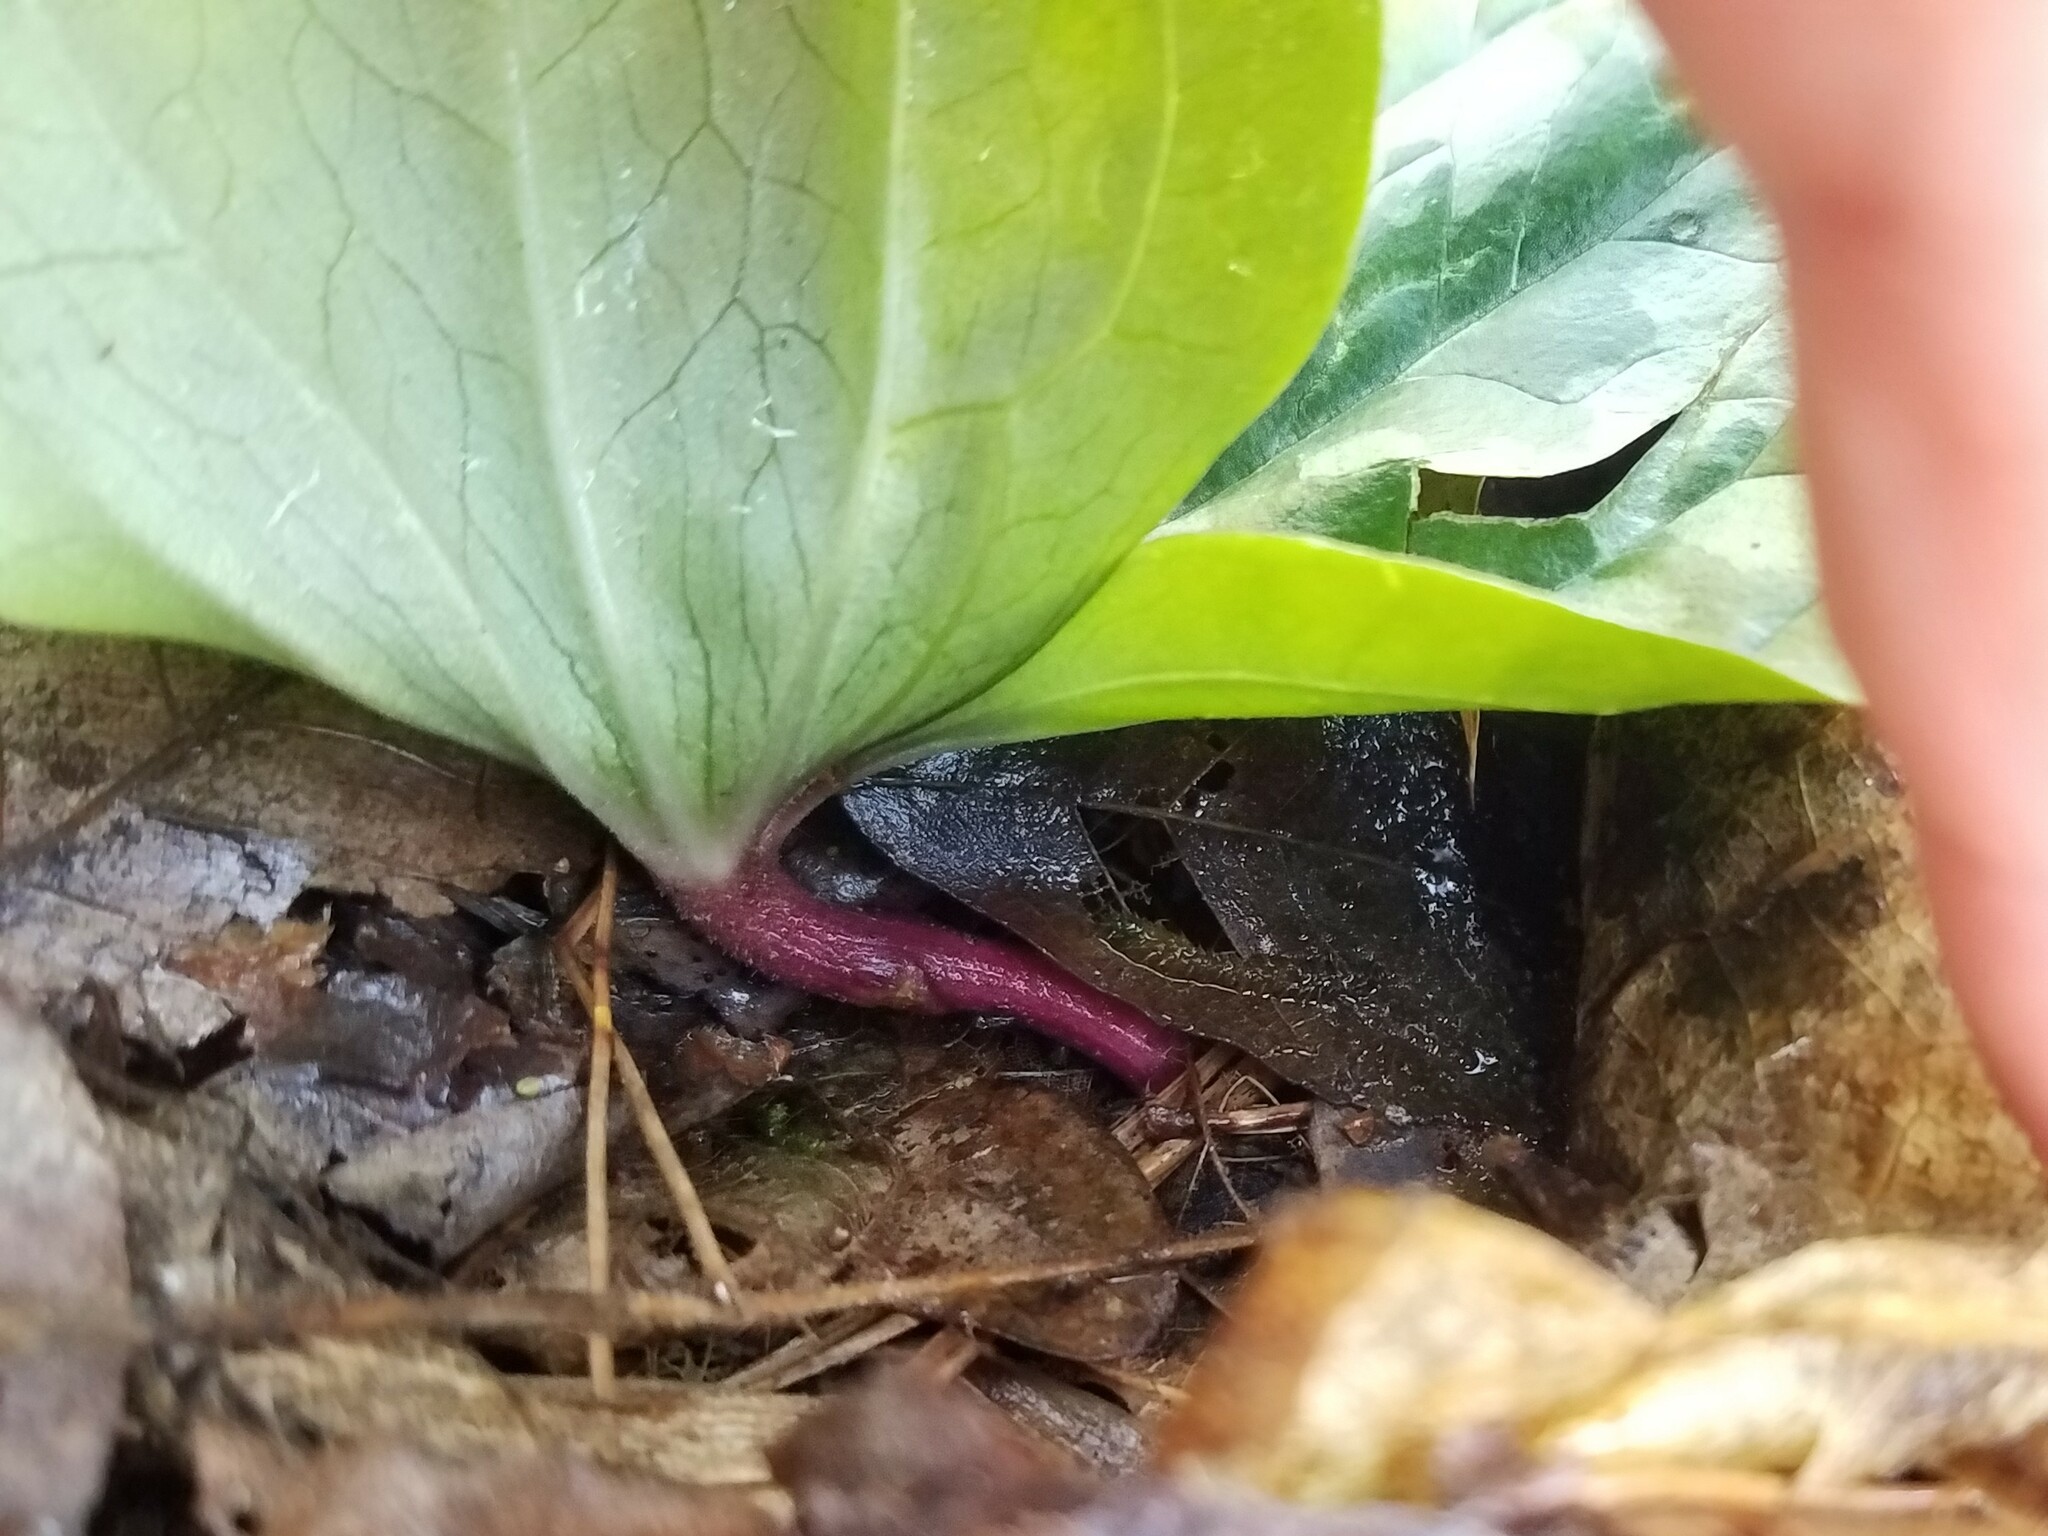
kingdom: Plantae
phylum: Tracheophyta
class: Liliopsida
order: Liliales
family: Melanthiaceae
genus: Trillium
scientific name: Trillium decumbens
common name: Decumbent trillium
